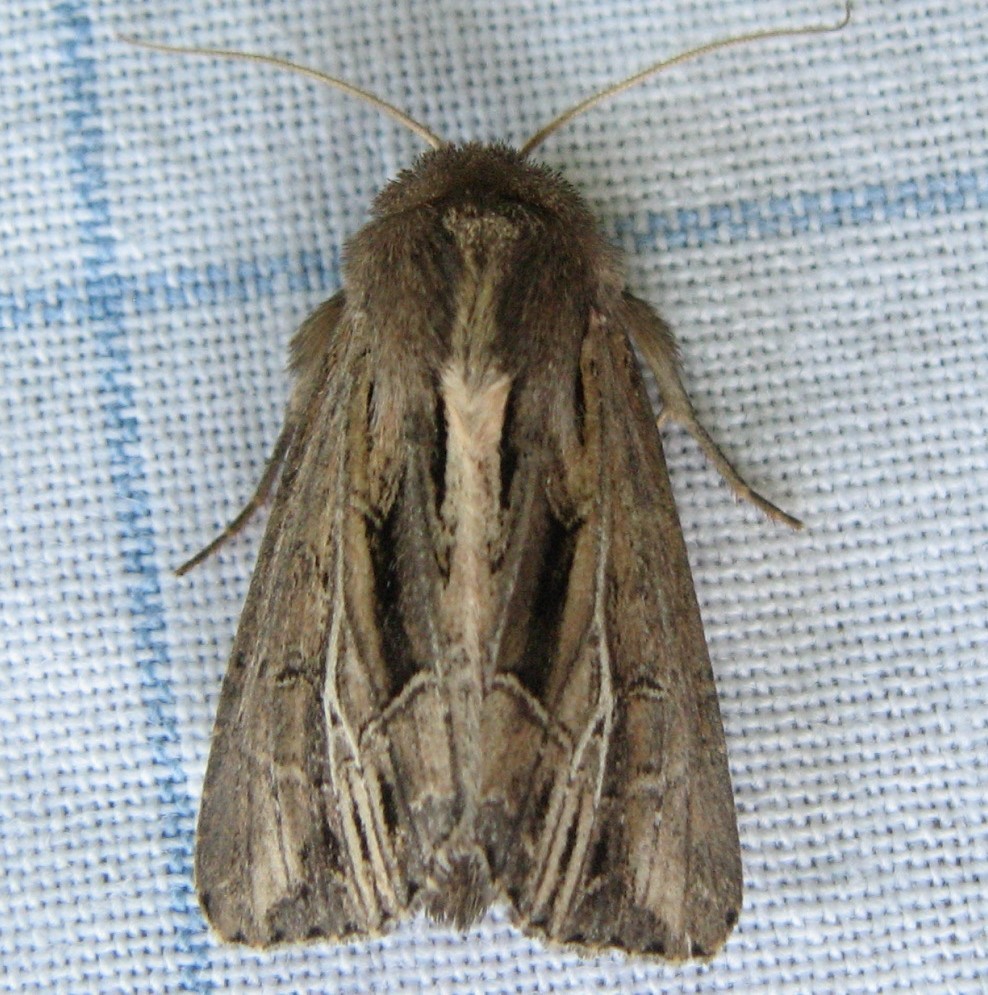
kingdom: Animalia
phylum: Arthropoda
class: Insecta
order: Lepidoptera
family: Noctuidae
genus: Resapamea
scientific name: Resapamea stipata
